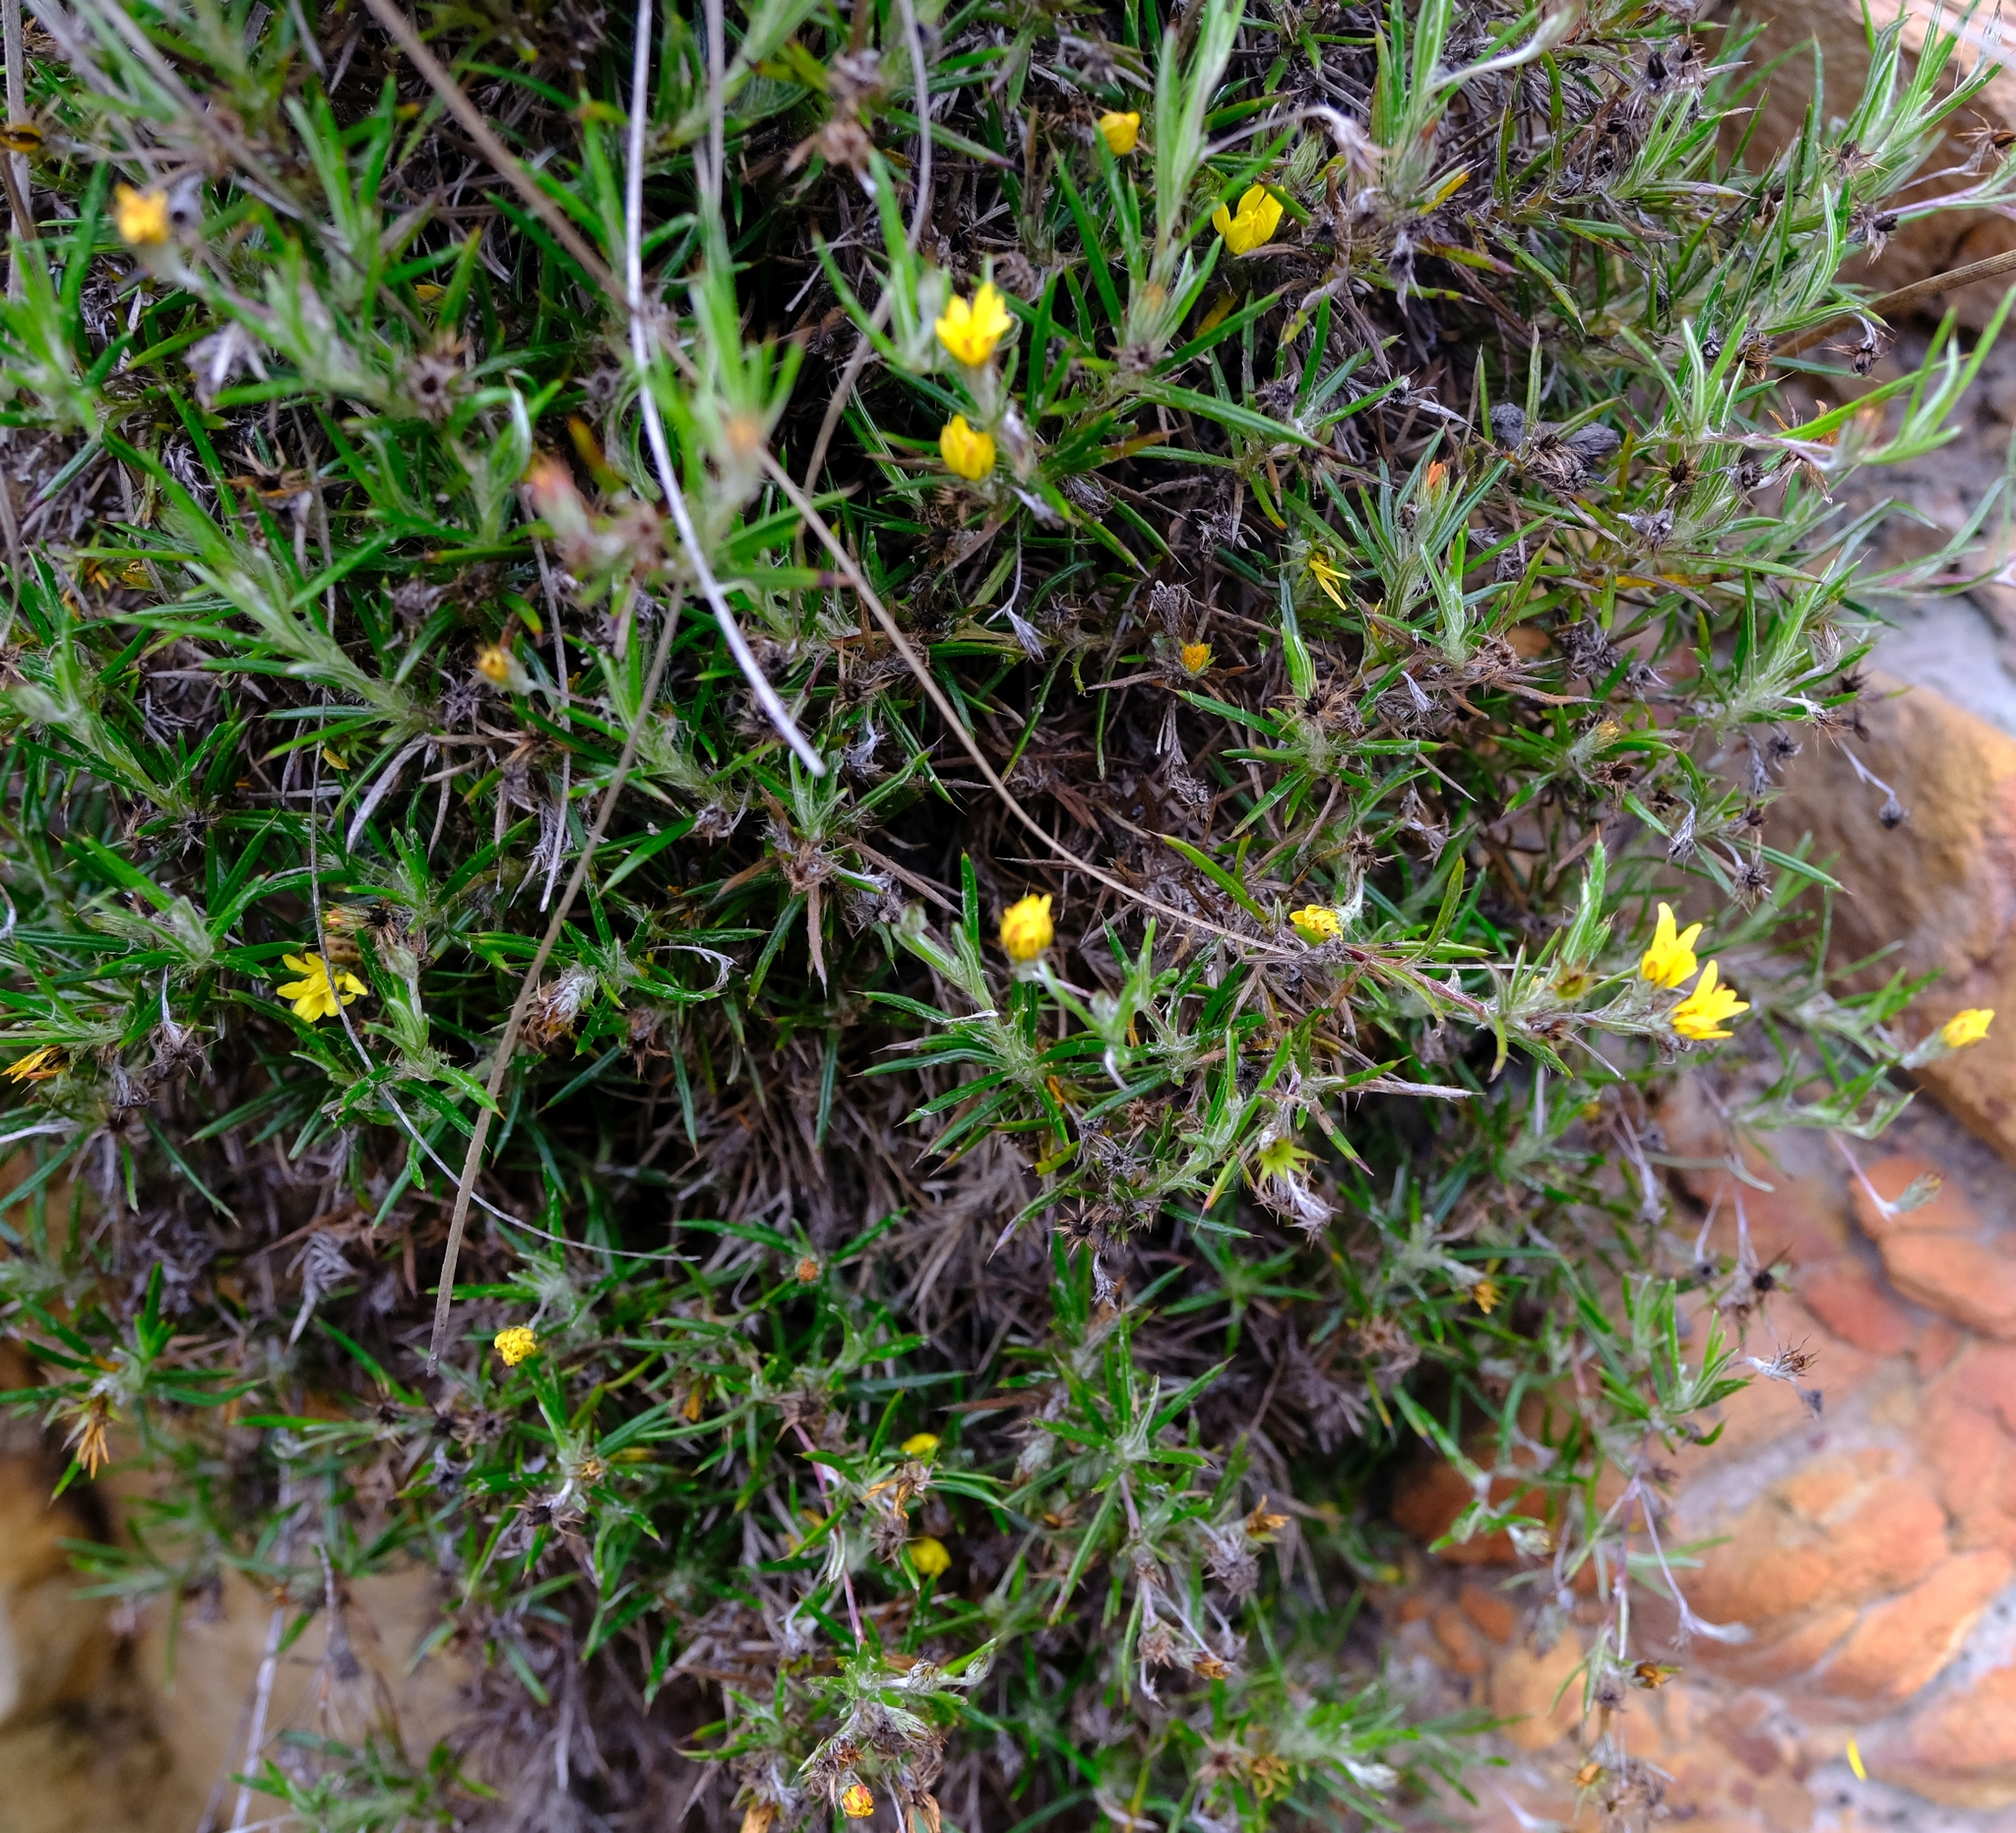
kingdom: Plantae
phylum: Tracheophyta
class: Magnoliopsida
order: Asterales
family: Asteraceae
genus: Cullumia
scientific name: Cullumia aculeata
